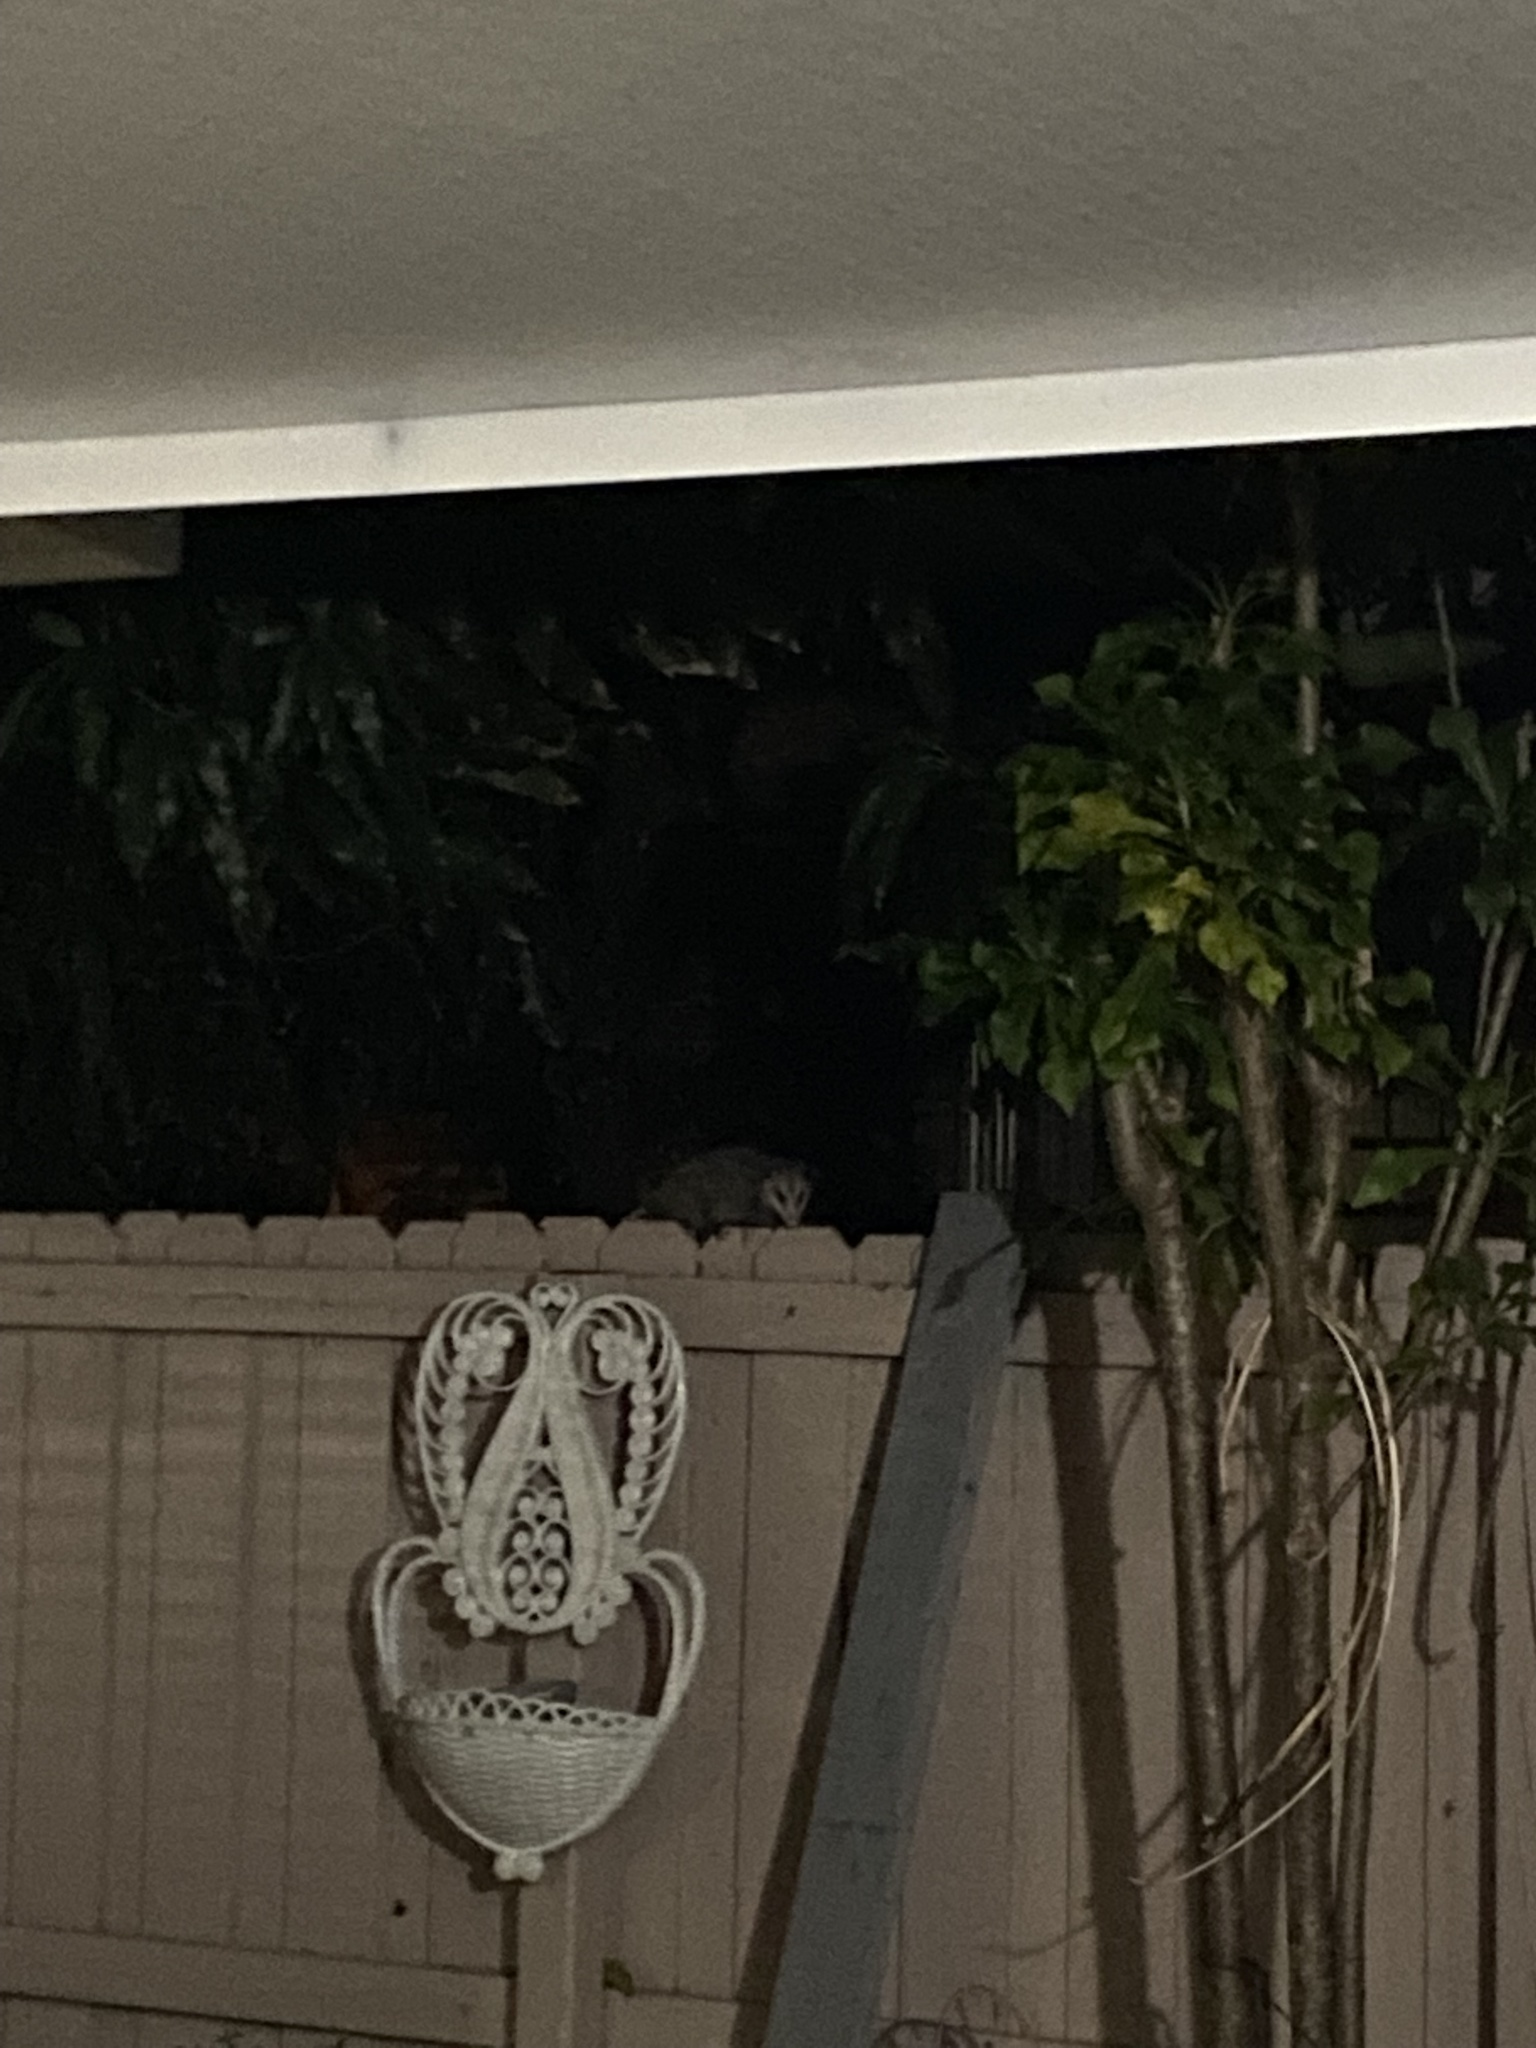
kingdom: Animalia
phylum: Chordata
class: Mammalia
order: Didelphimorphia
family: Didelphidae
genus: Didelphis
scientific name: Didelphis virginiana
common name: Virginia opossum
